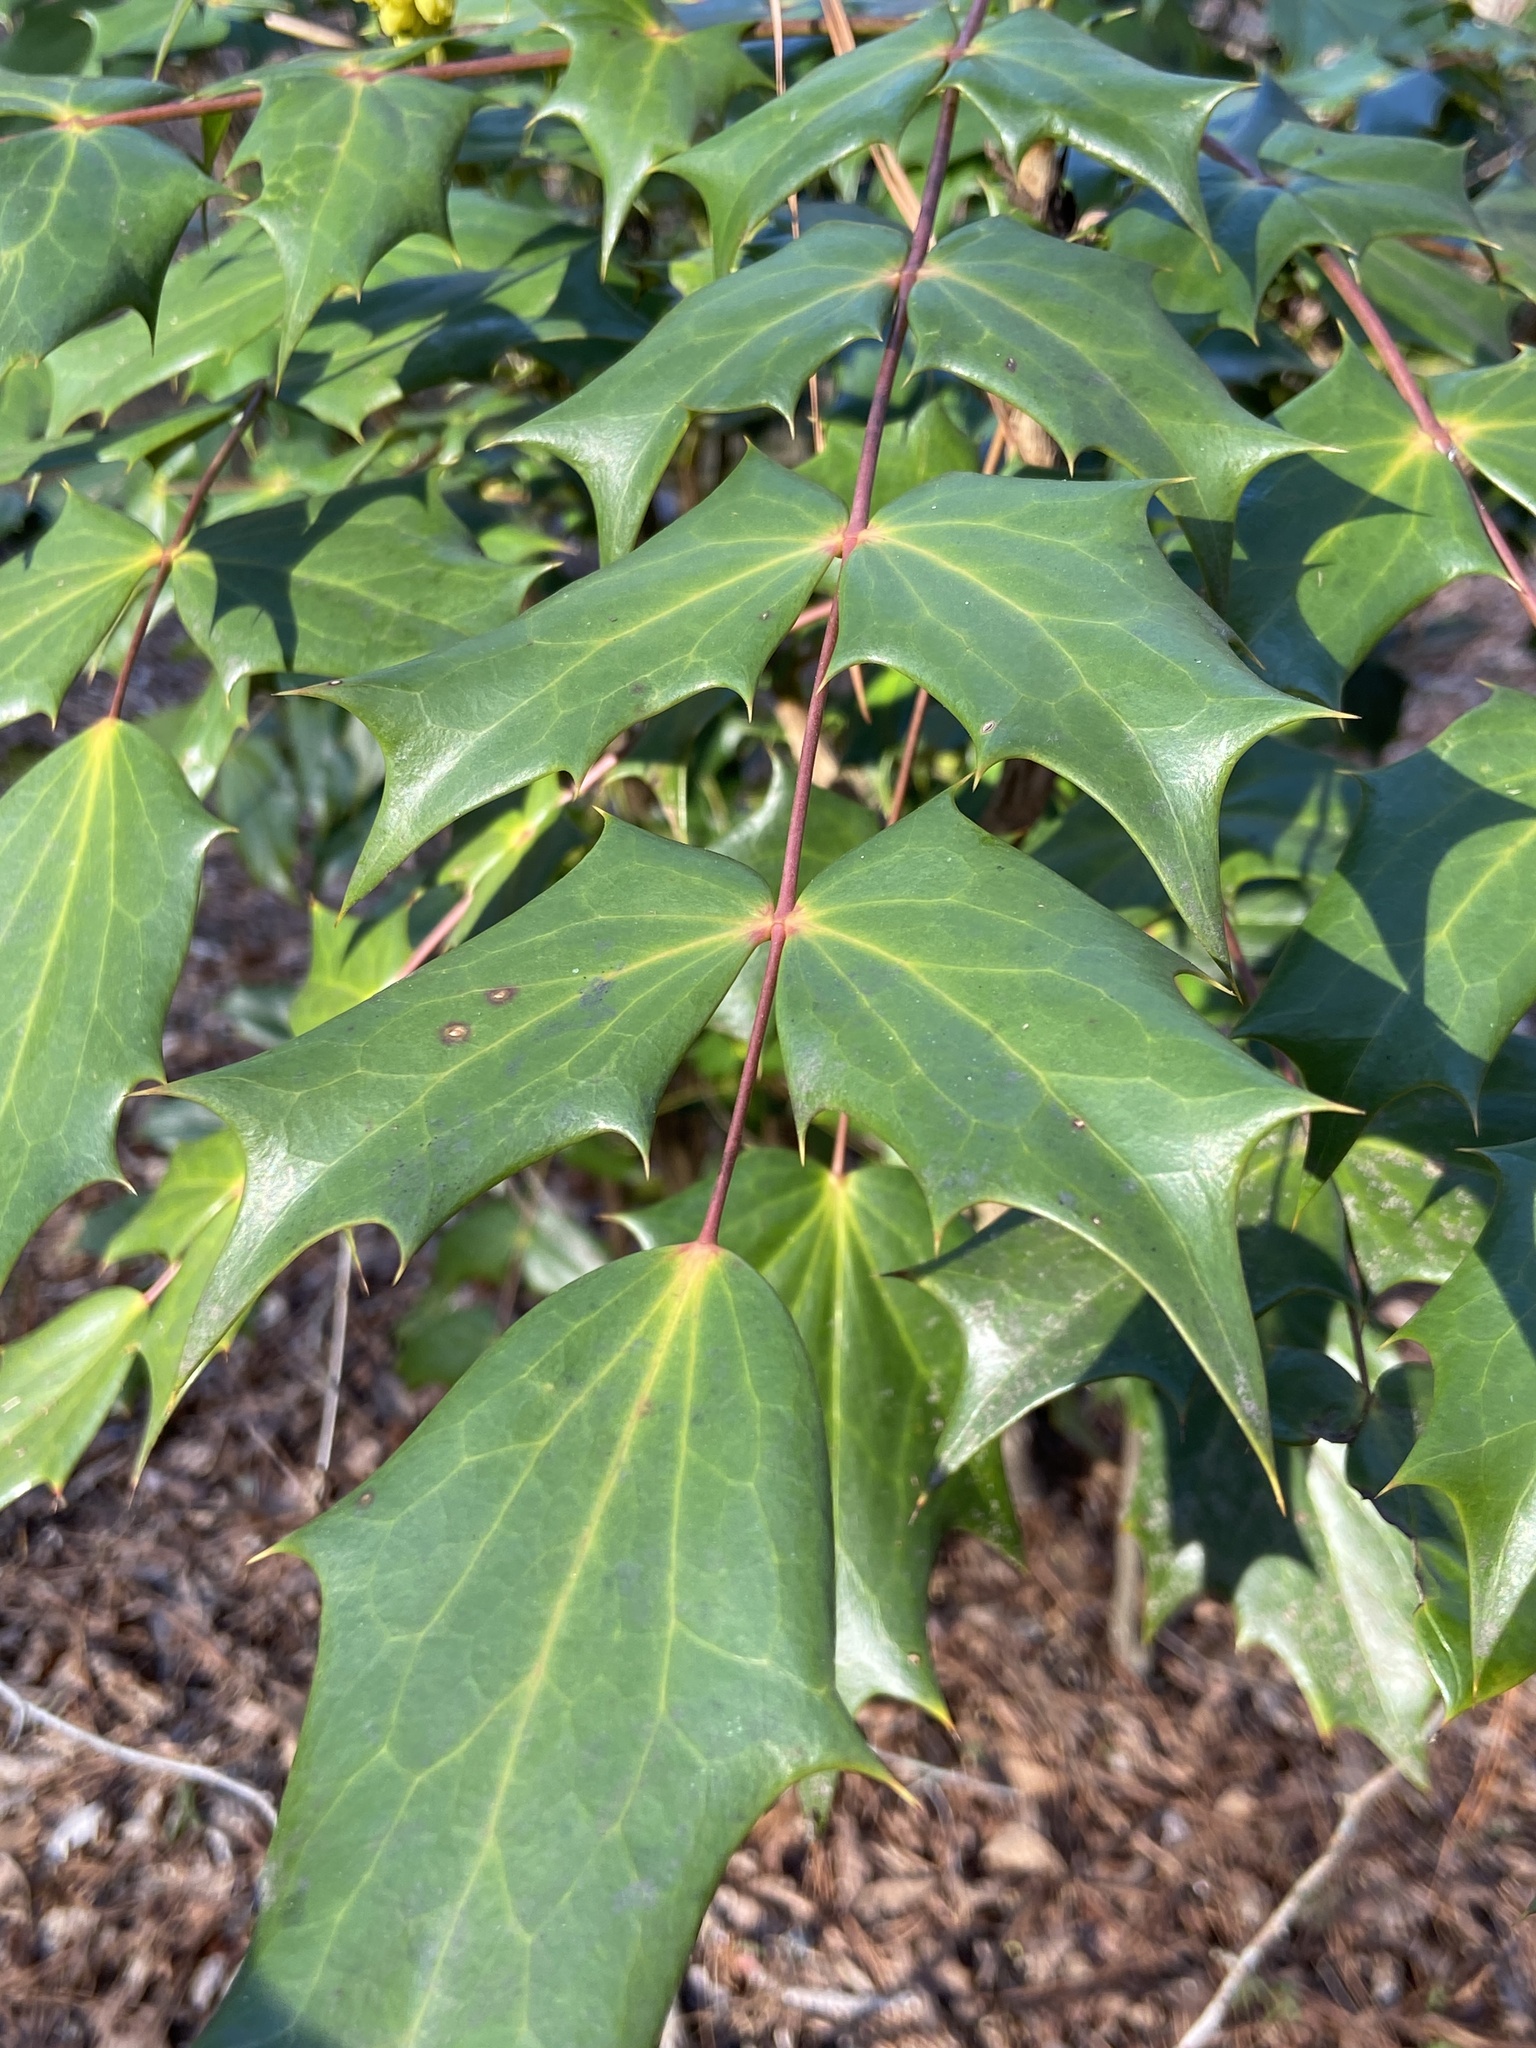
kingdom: Plantae
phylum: Tracheophyta
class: Magnoliopsida
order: Ranunculales
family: Berberidaceae
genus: Mahonia
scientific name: Mahonia bealei
